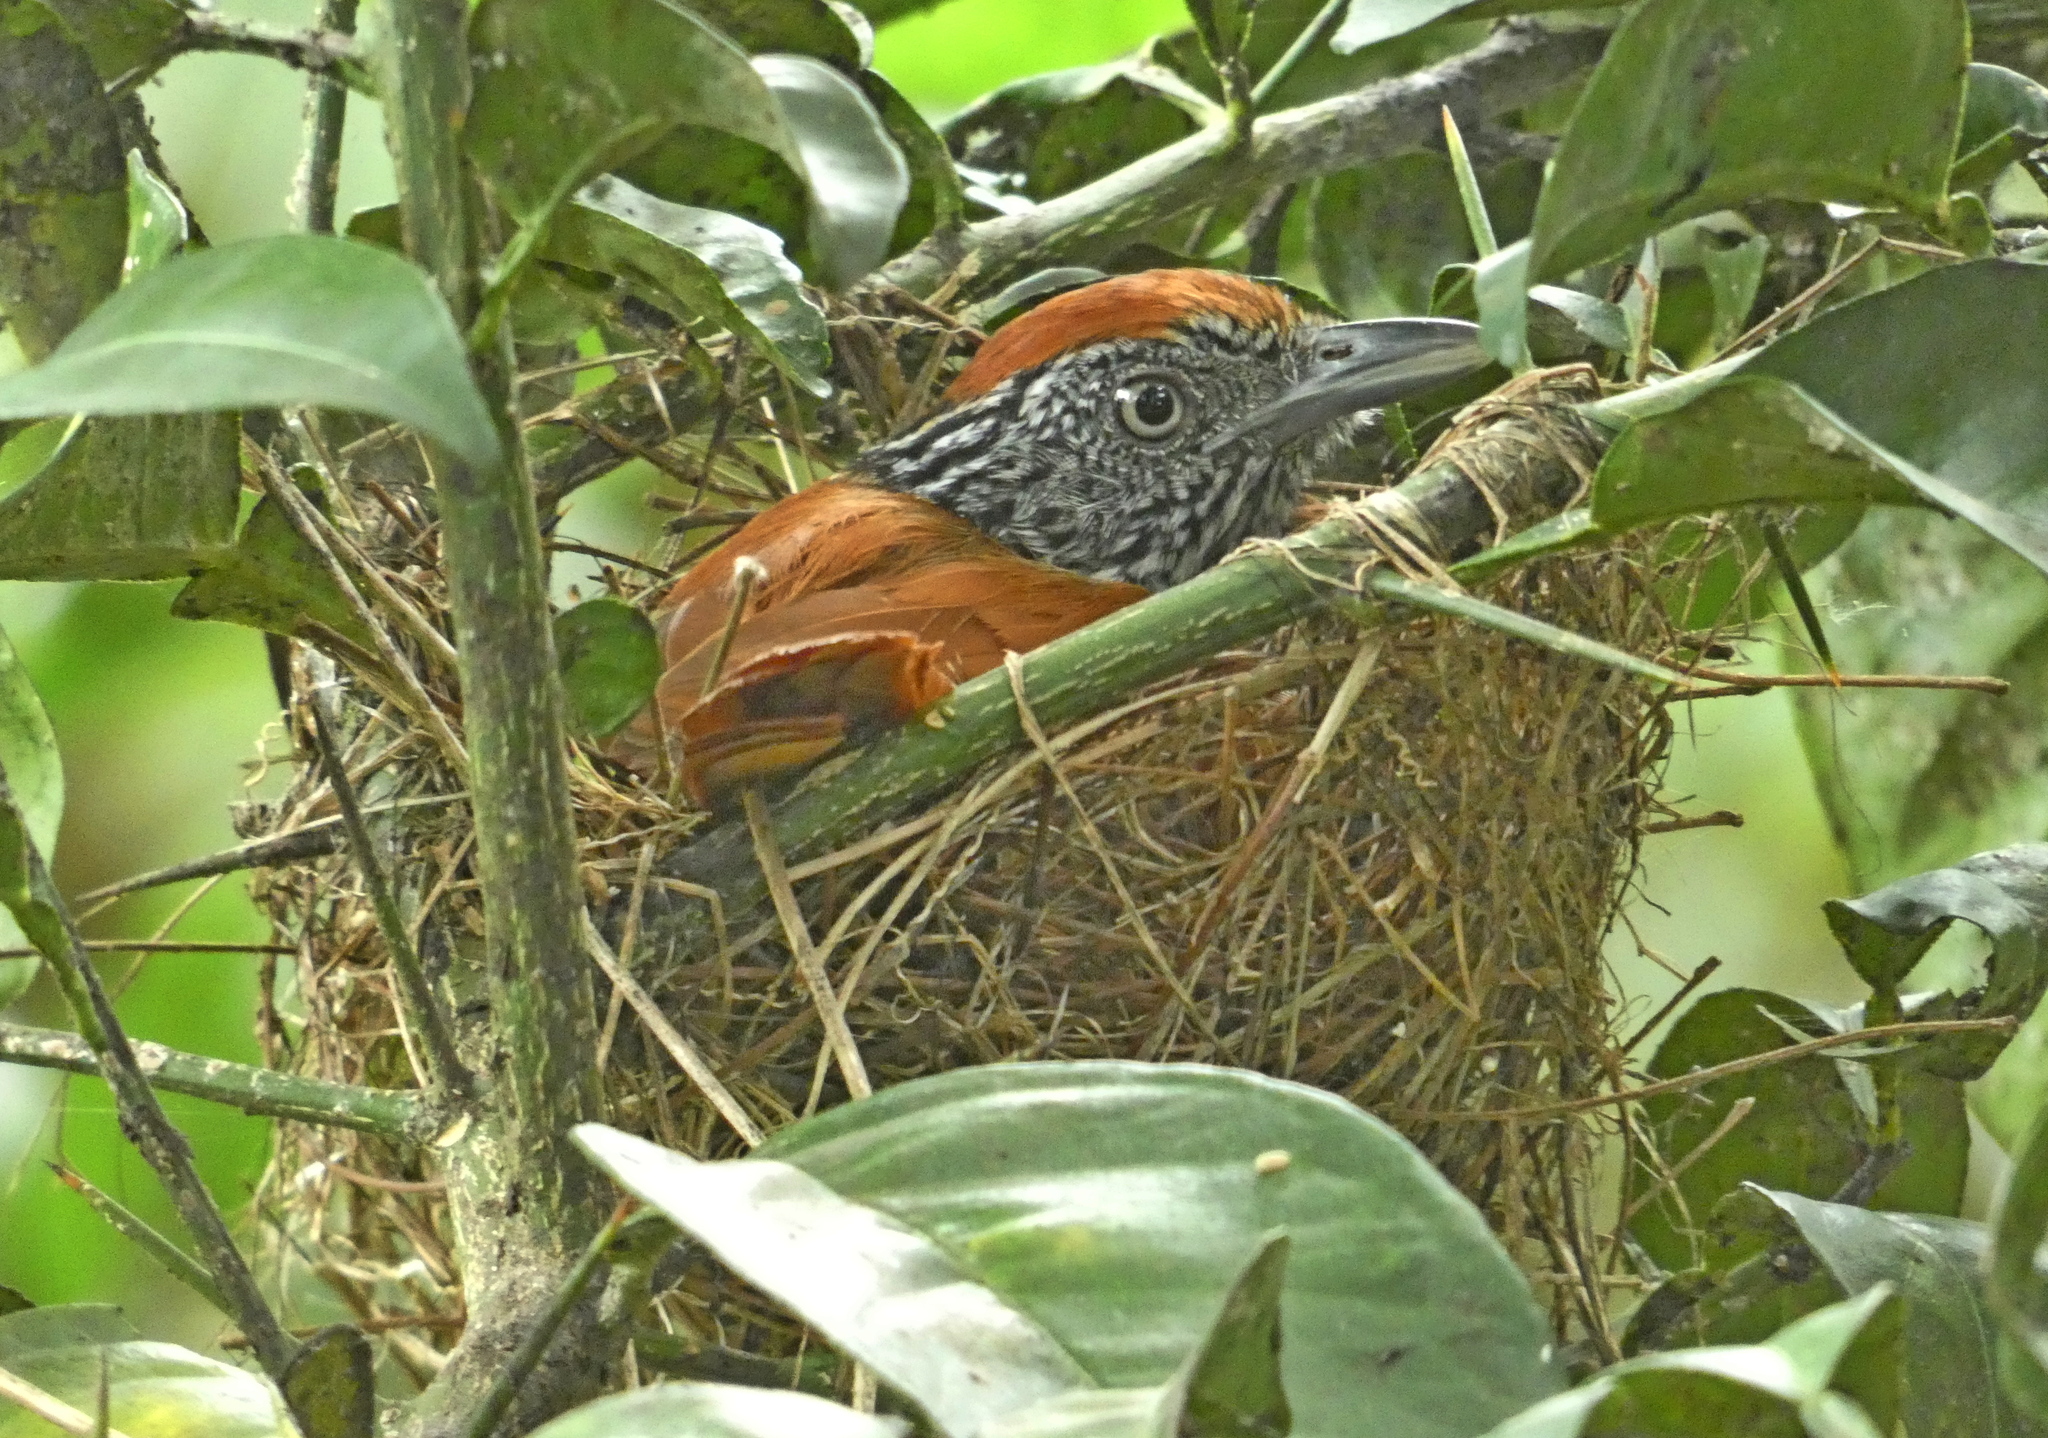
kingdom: Animalia
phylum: Chordata
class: Aves
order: Passeriformes
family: Thamnophilidae
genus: Thamnophilus
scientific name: Thamnophilus palliatus
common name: Chestnut-backed antshrike
